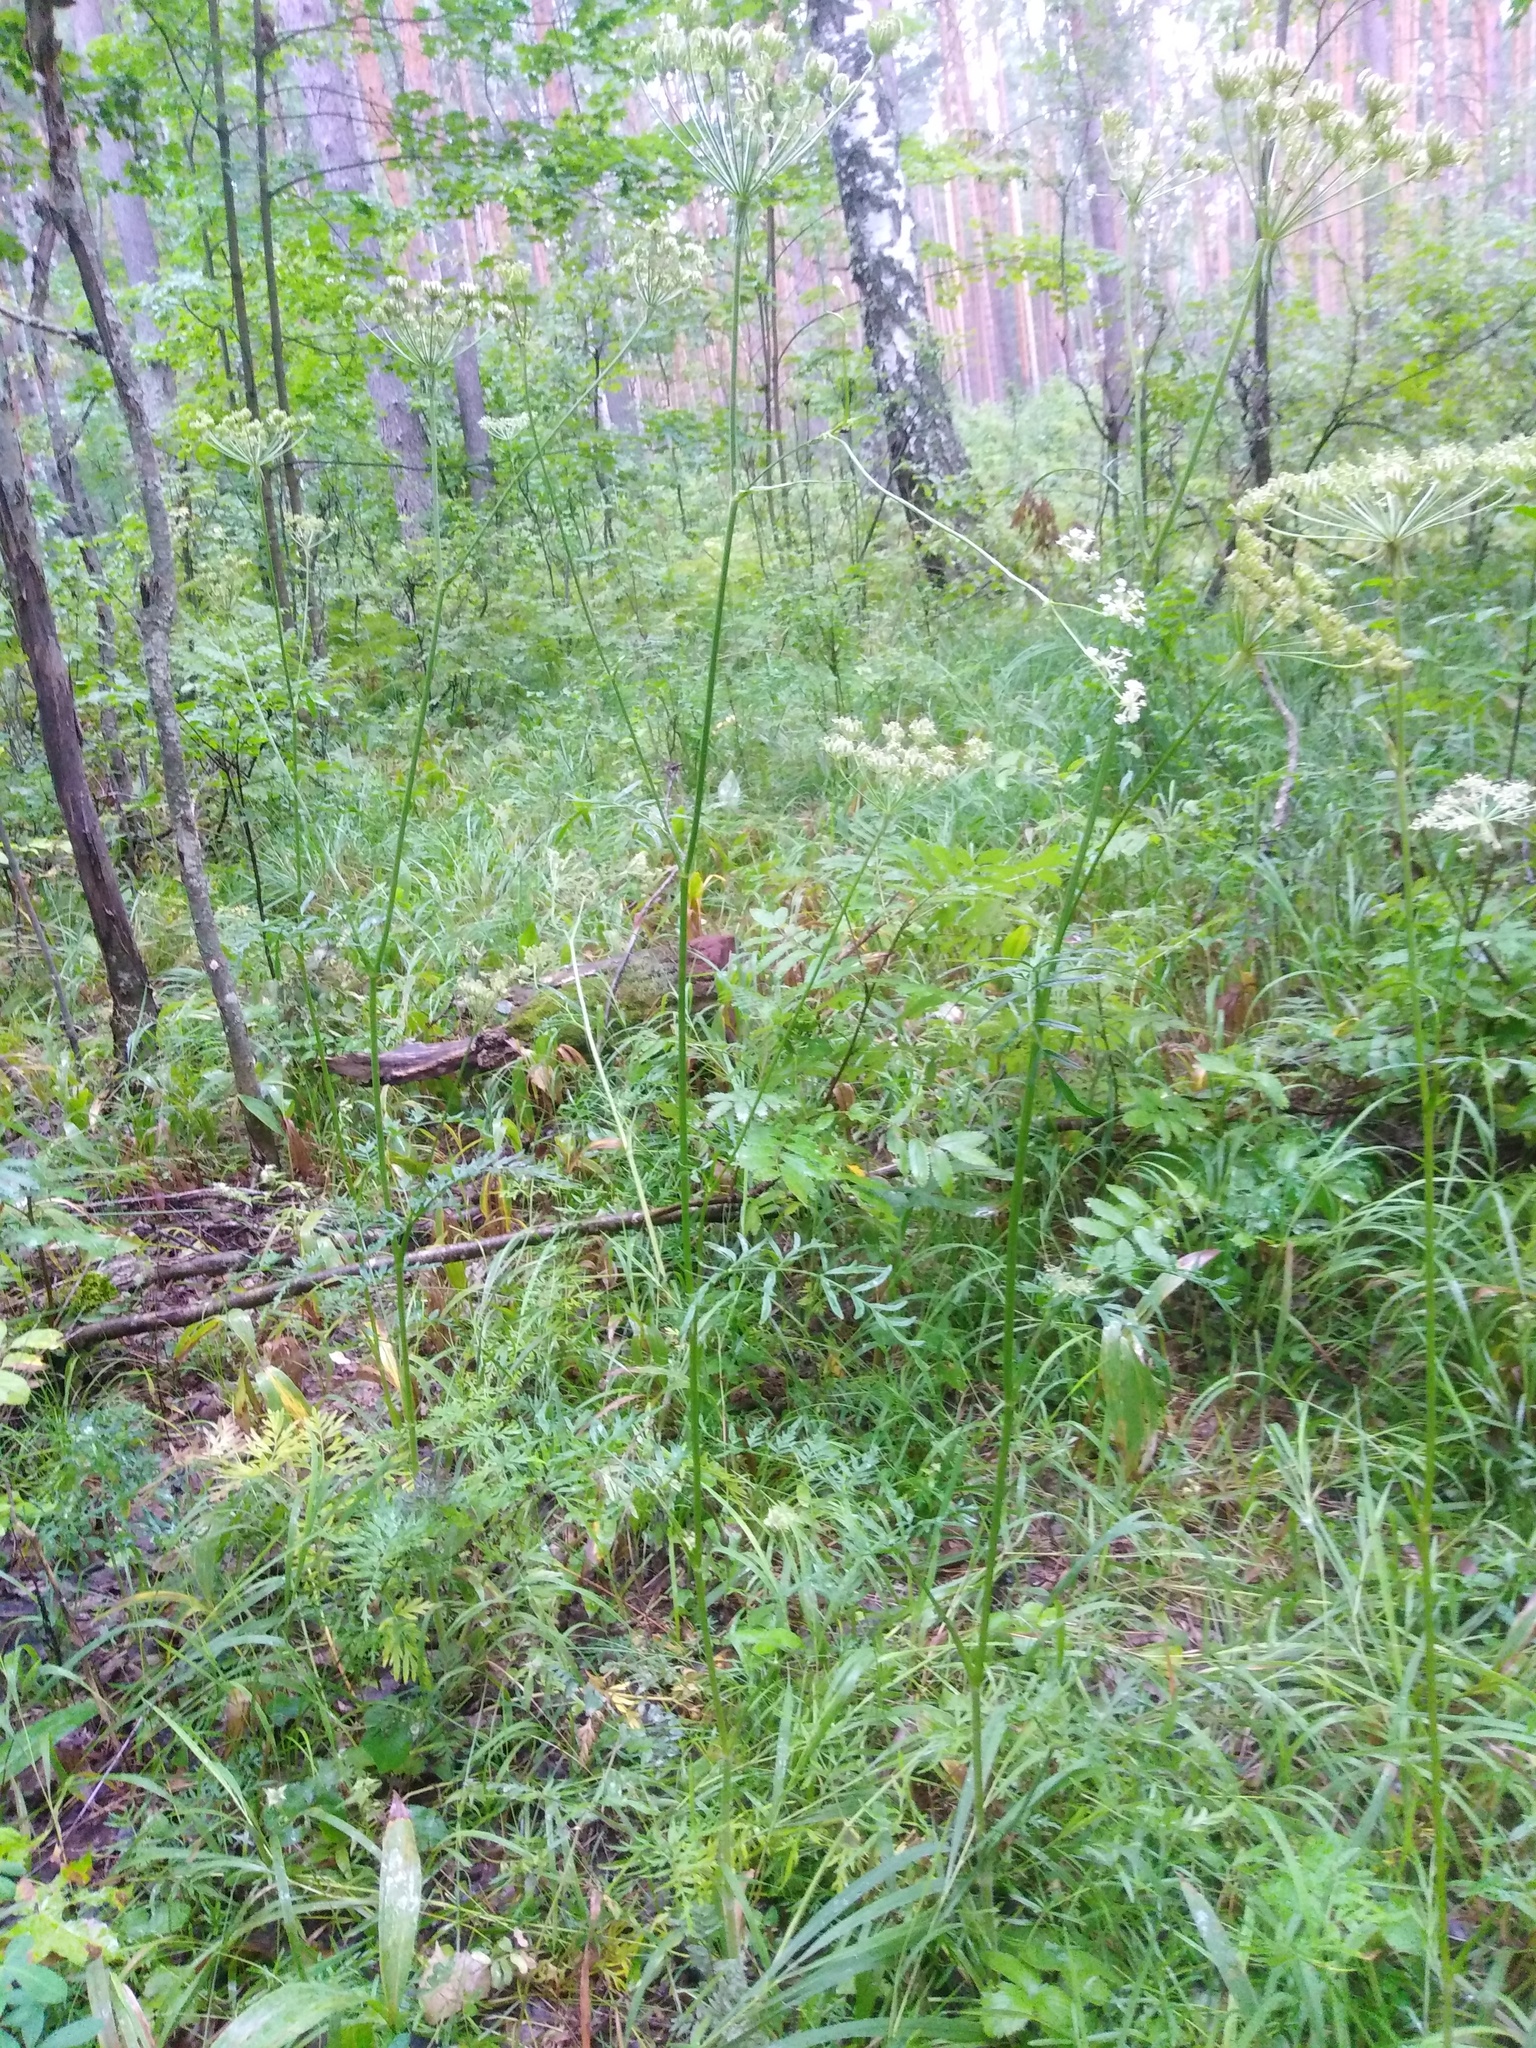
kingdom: Plantae
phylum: Tracheophyta
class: Magnoliopsida
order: Apiales
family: Apiaceae
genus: Silphiodaucus
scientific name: Silphiodaucus prutenicus
